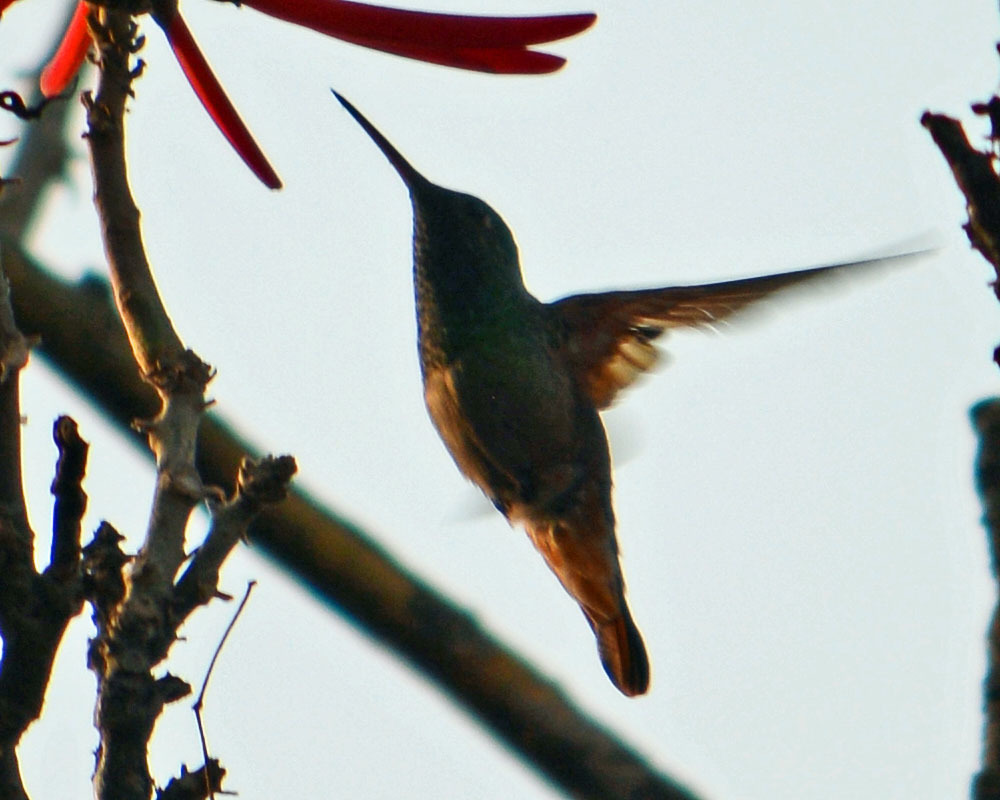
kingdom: Animalia
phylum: Chordata
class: Aves
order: Apodiformes
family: Trochilidae
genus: Saucerottia
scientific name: Saucerottia beryllina
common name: Berylline hummingbird
